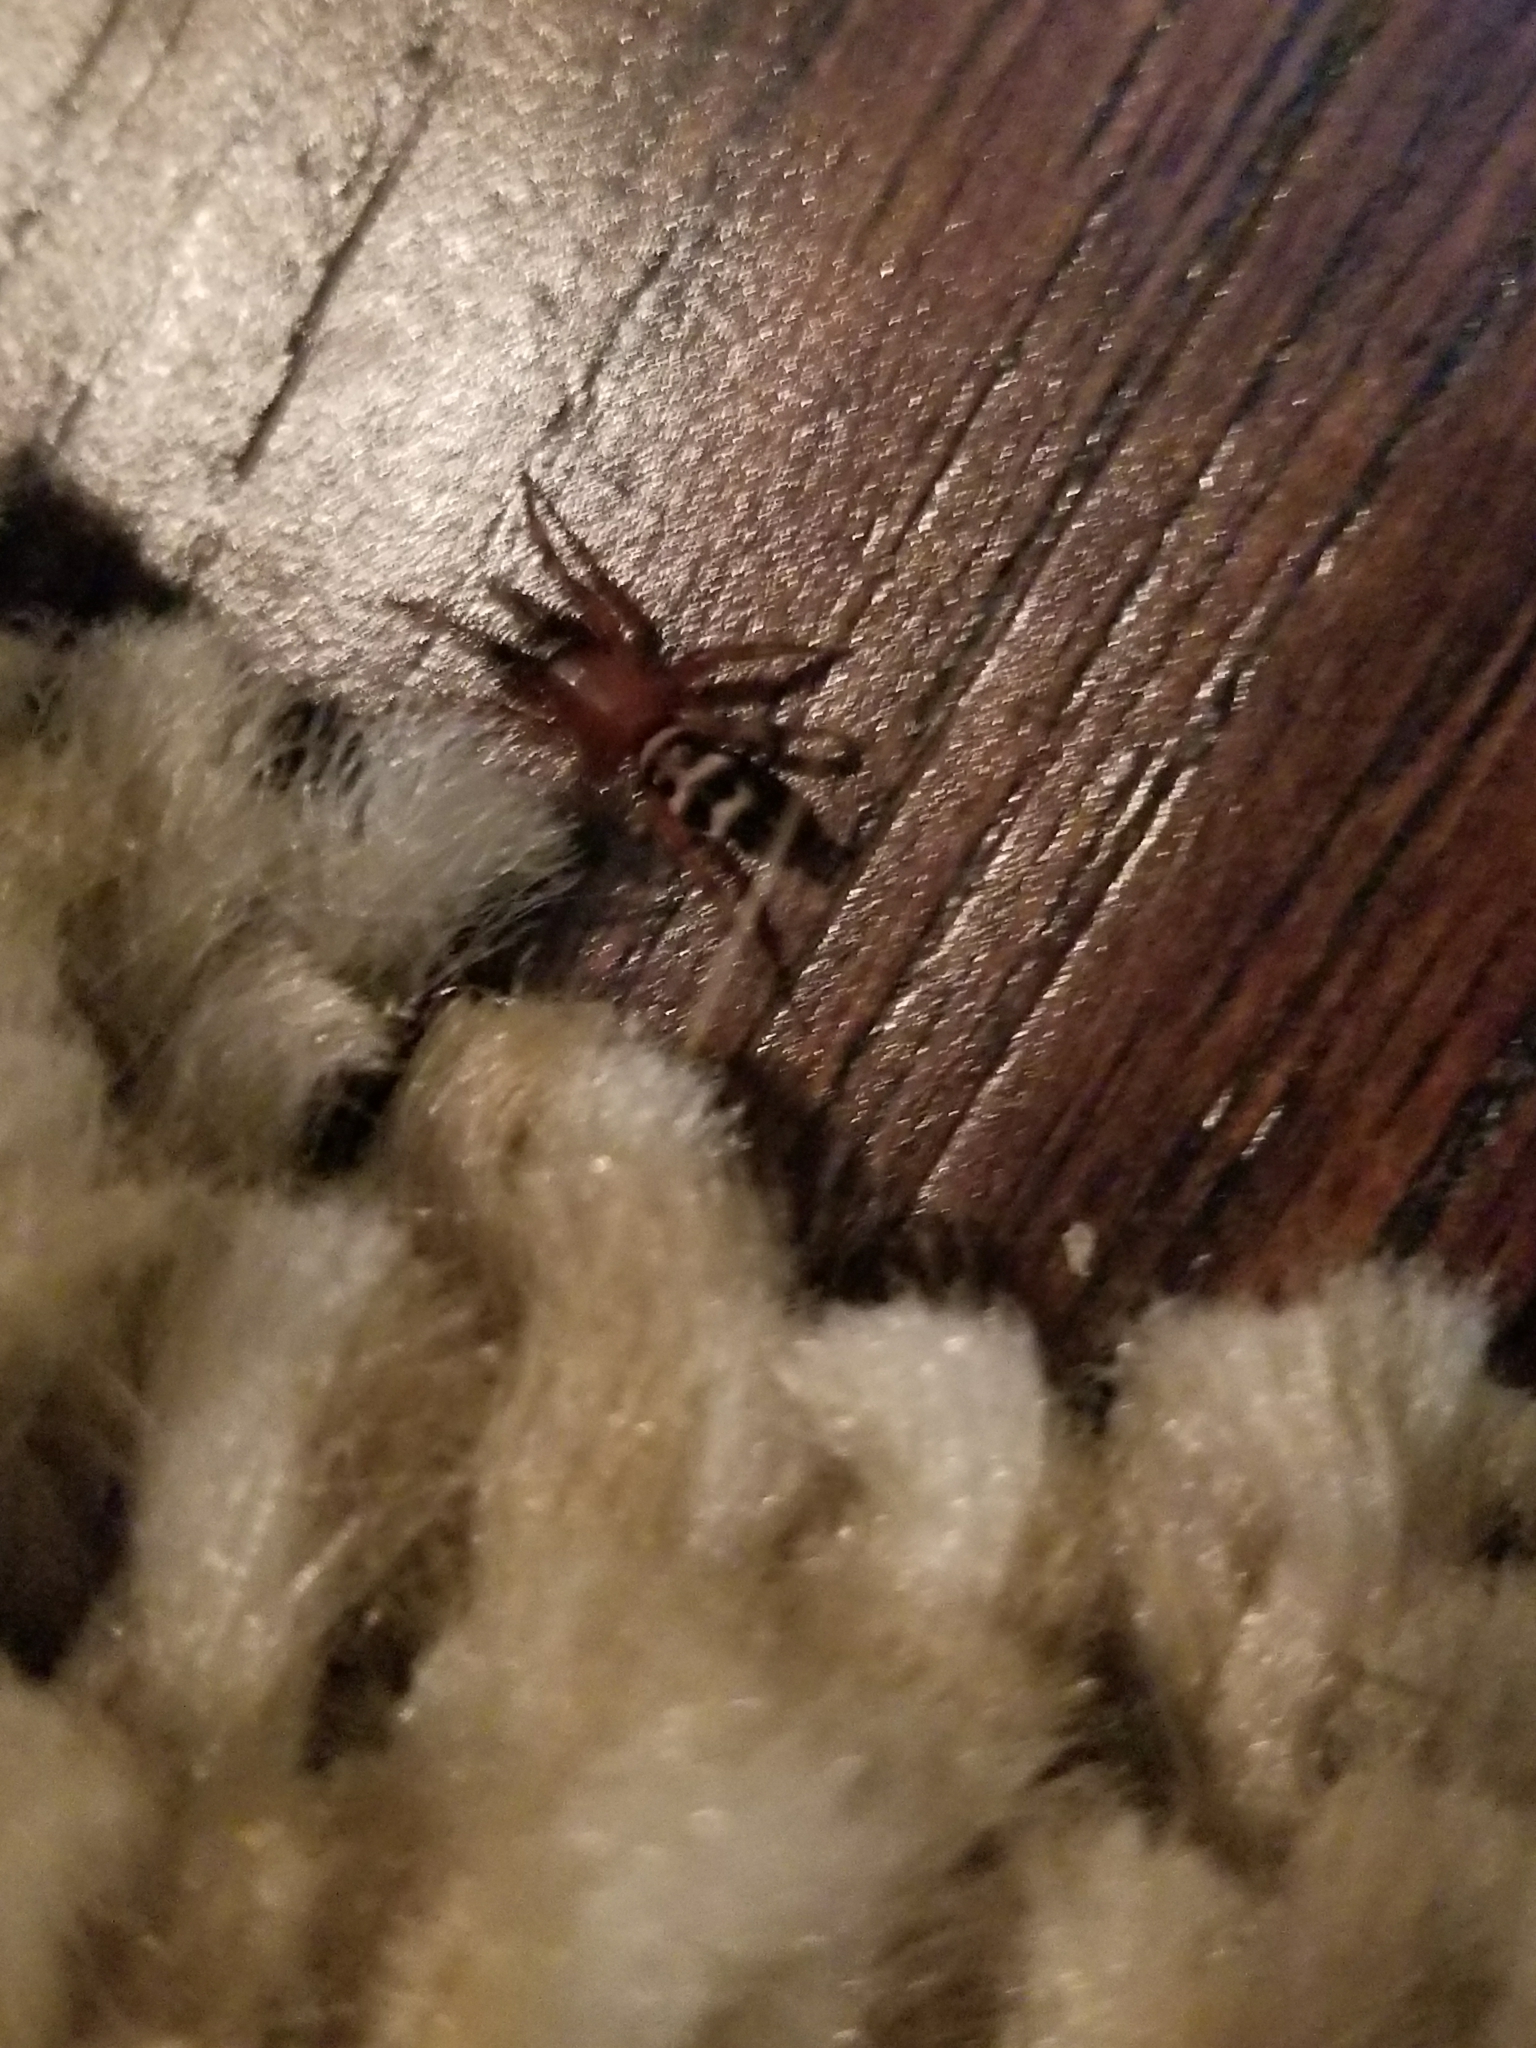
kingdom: Animalia
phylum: Arthropoda
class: Arachnida
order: Araneae
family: Gnaphosidae
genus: Sergiolus
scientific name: Sergiolus capulatus
